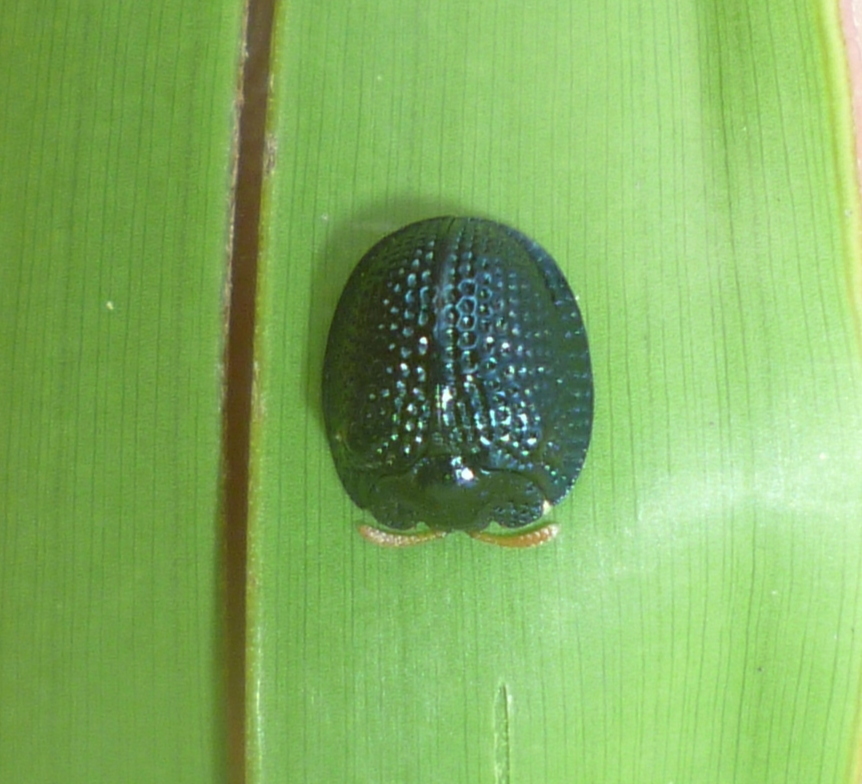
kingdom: Animalia
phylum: Arthropoda
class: Insecta
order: Coleoptera
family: Chrysomelidae
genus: Hemisphaerota
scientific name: Hemisphaerota cyanea
